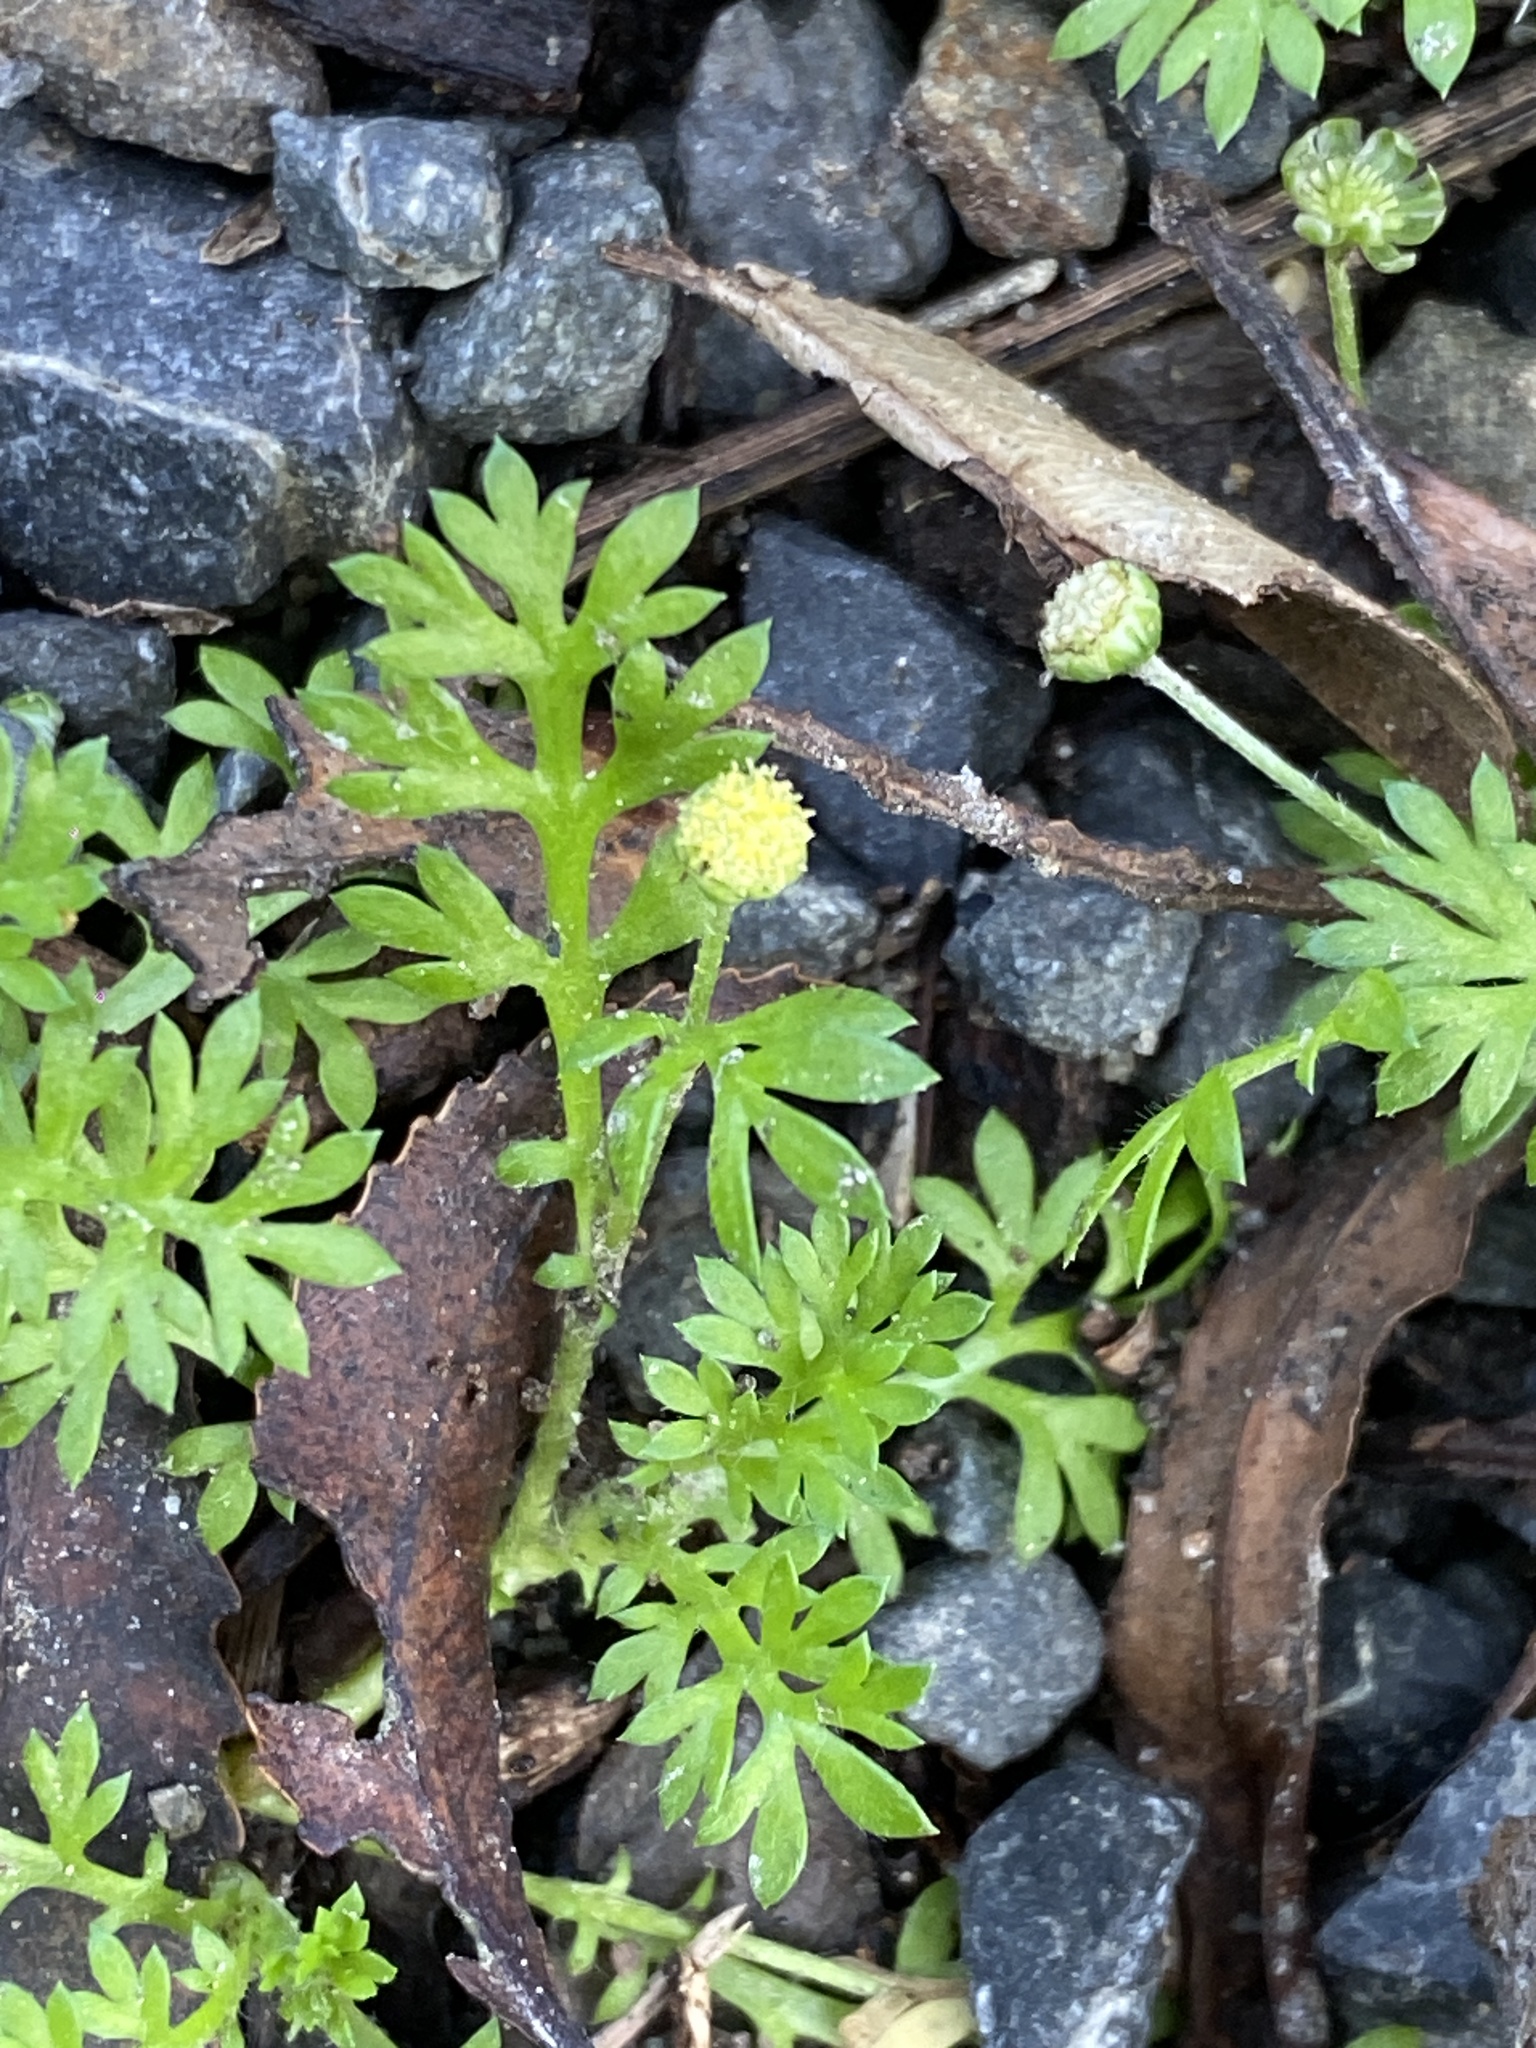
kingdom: Plantae
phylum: Tracheophyta
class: Magnoliopsida
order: Asterales
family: Asteraceae
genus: Cotula
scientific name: Cotula australis
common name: Australian waterbuttons
